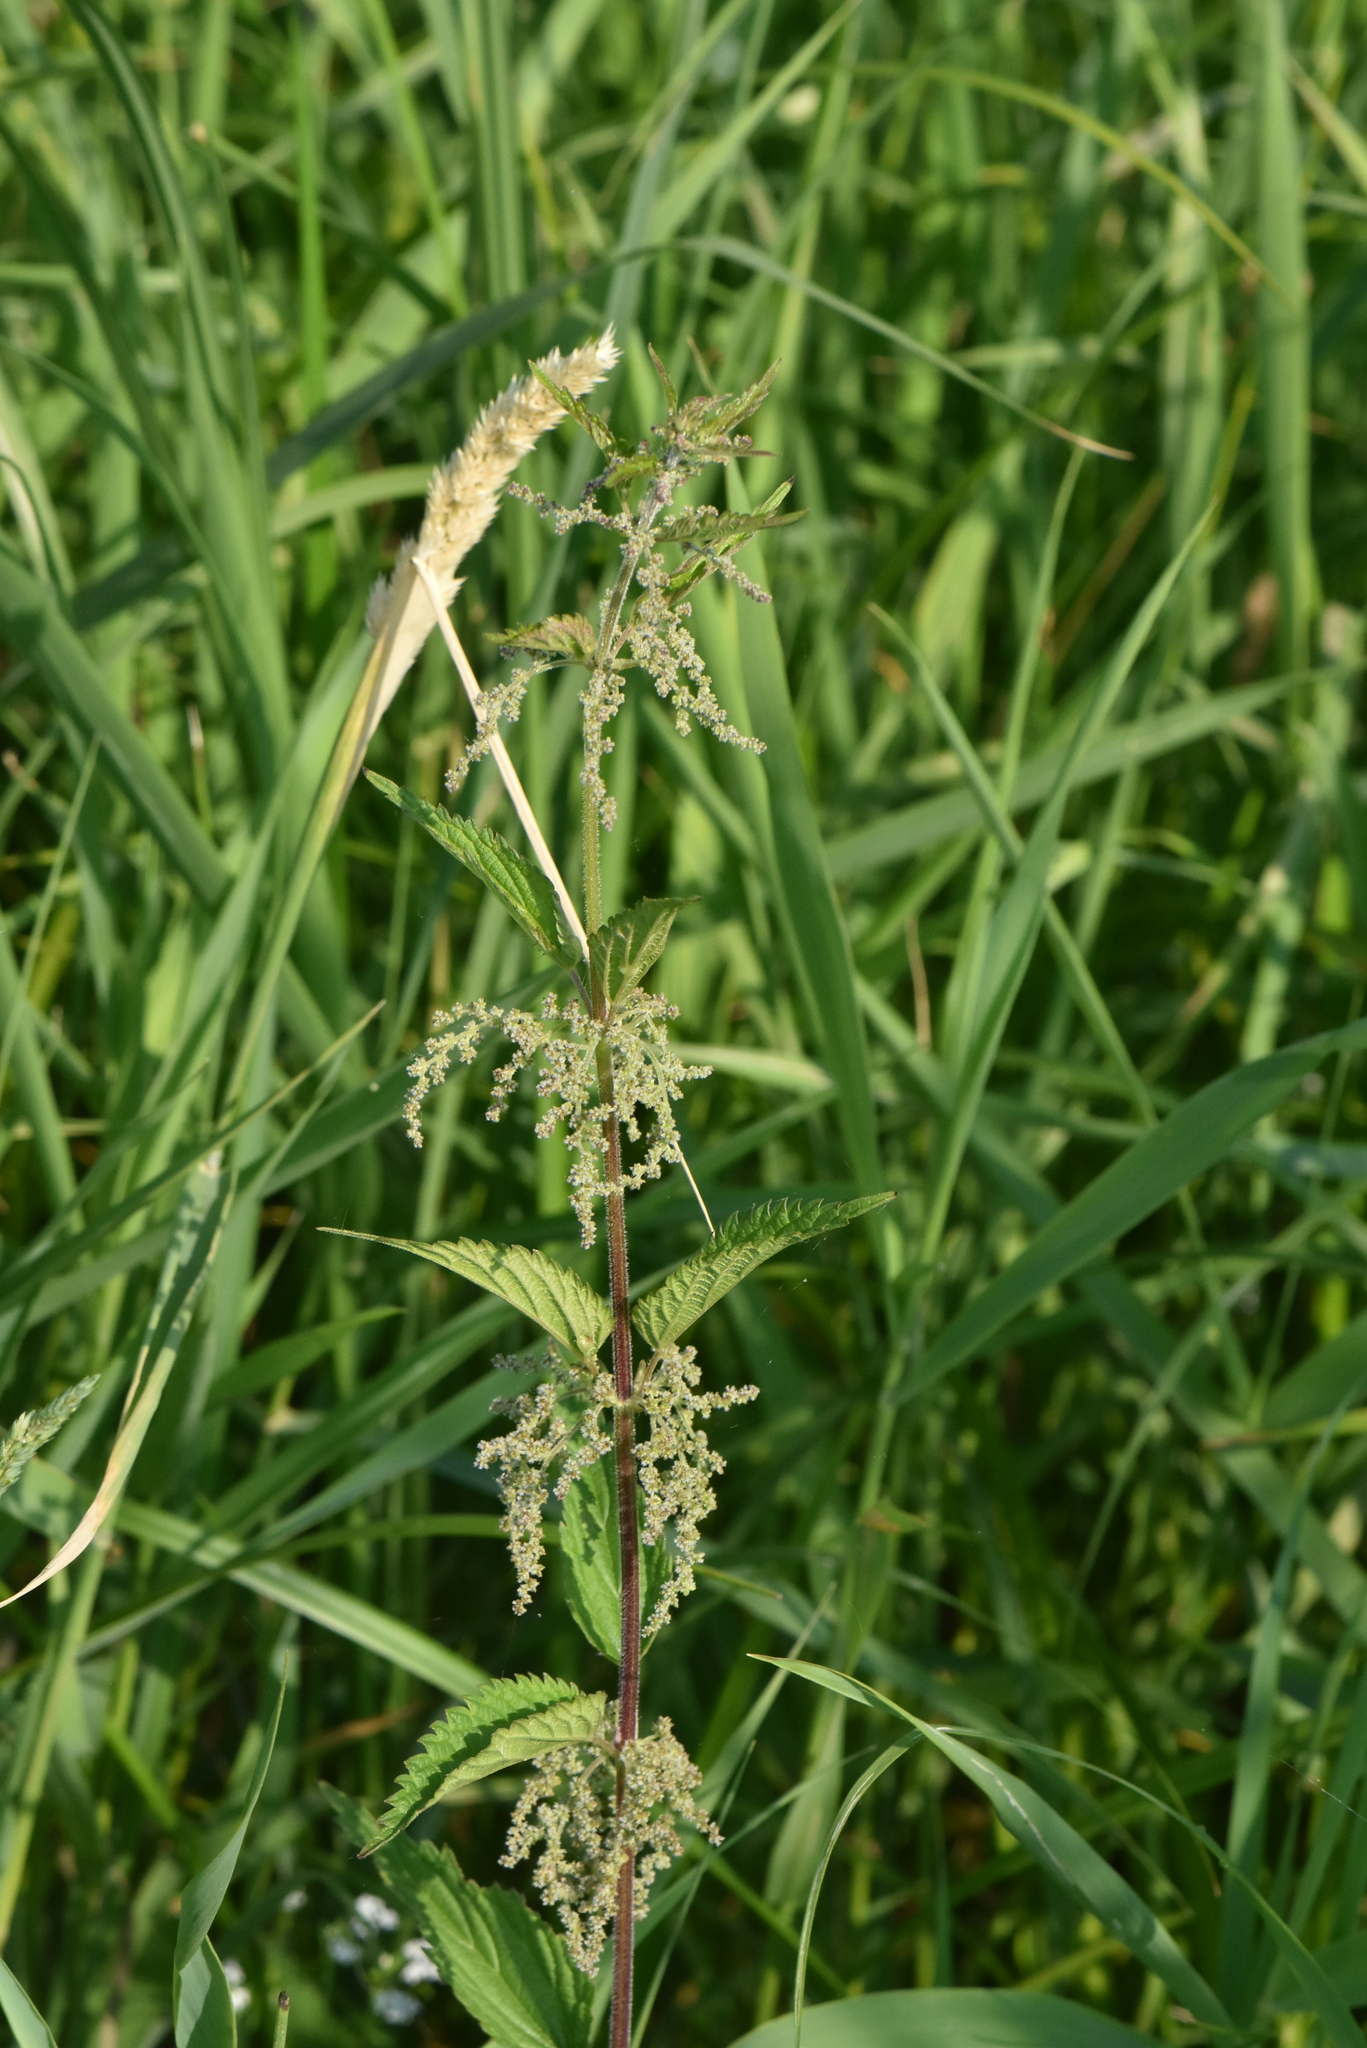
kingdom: Plantae
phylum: Tracheophyta
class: Magnoliopsida
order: Rosales
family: Urticaceae
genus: Urtica
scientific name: Urtica dioica
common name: Common nettle
